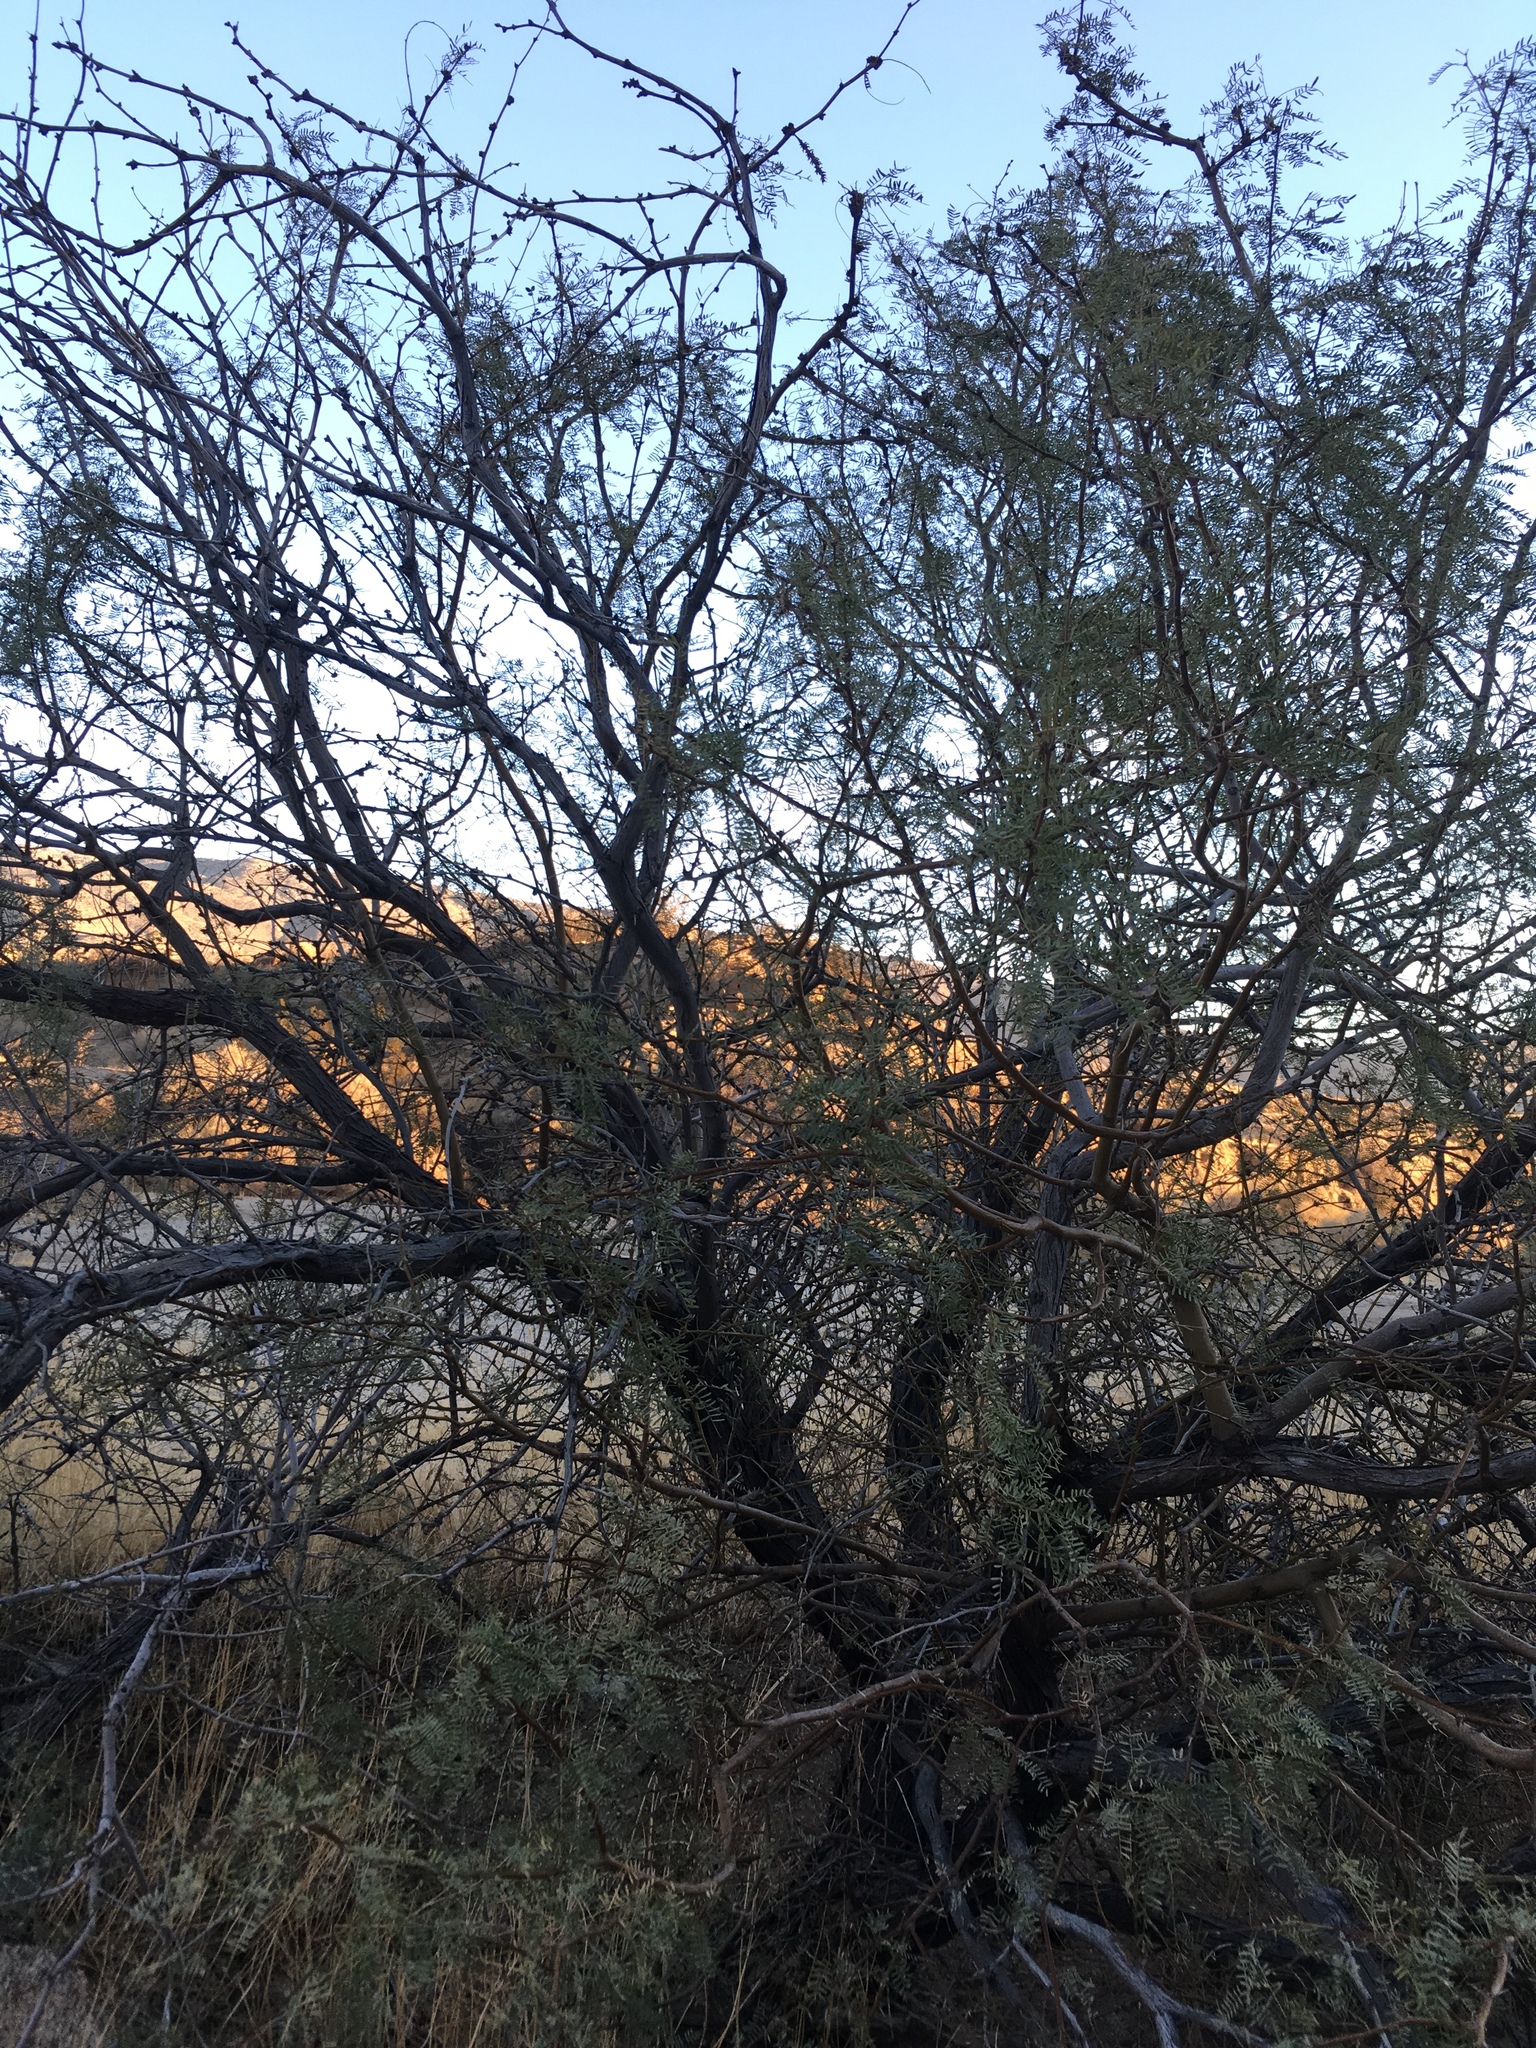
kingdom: Plantae
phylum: Tracheophyta
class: Magnoliopsida
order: Fabales
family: Fabaceae
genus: Prosopis
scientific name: Prosopis pubescens
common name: Screw-bean
